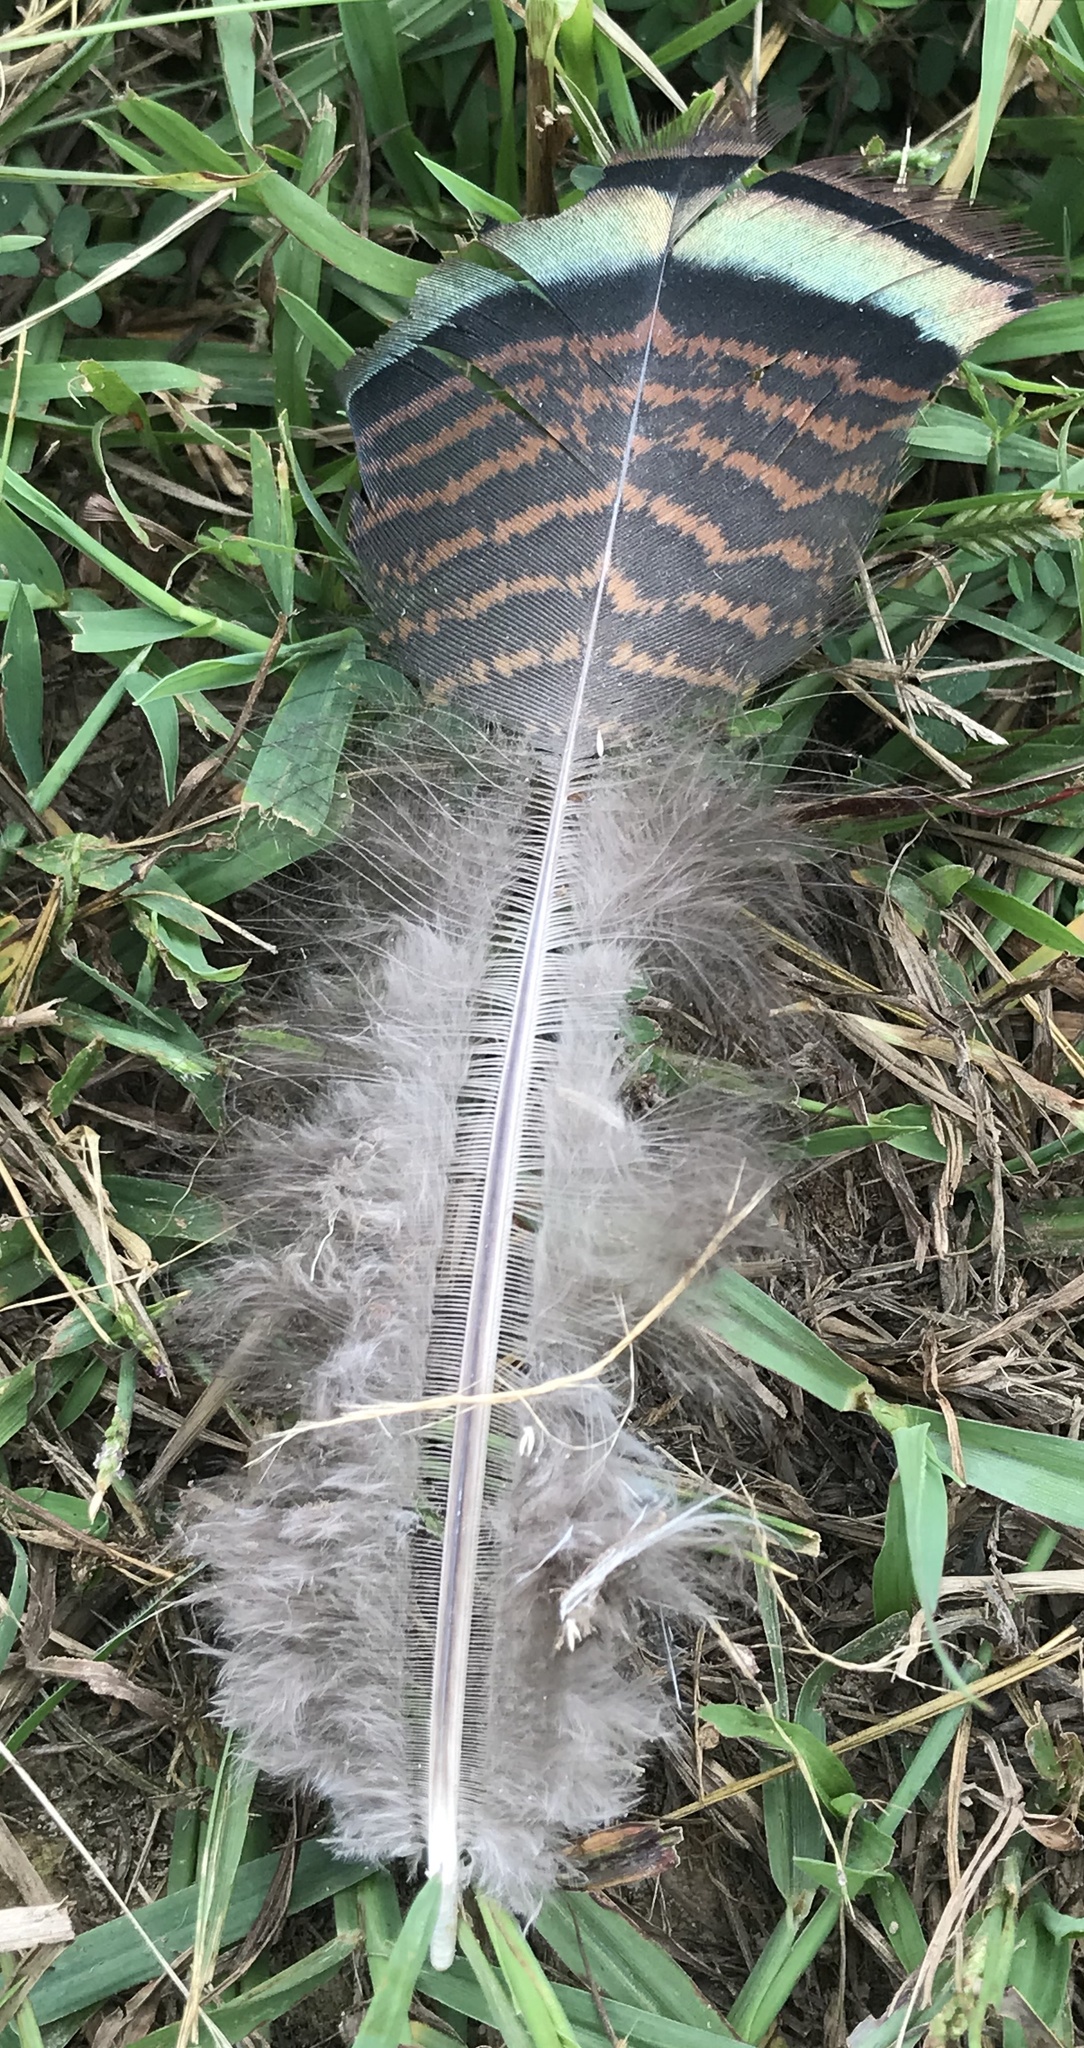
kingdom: Animalia
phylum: Chordata
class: Aves
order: Galliformes
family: Phasianidae
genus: Meleagris
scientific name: Meleagris gallopavo
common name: Wild turkey
